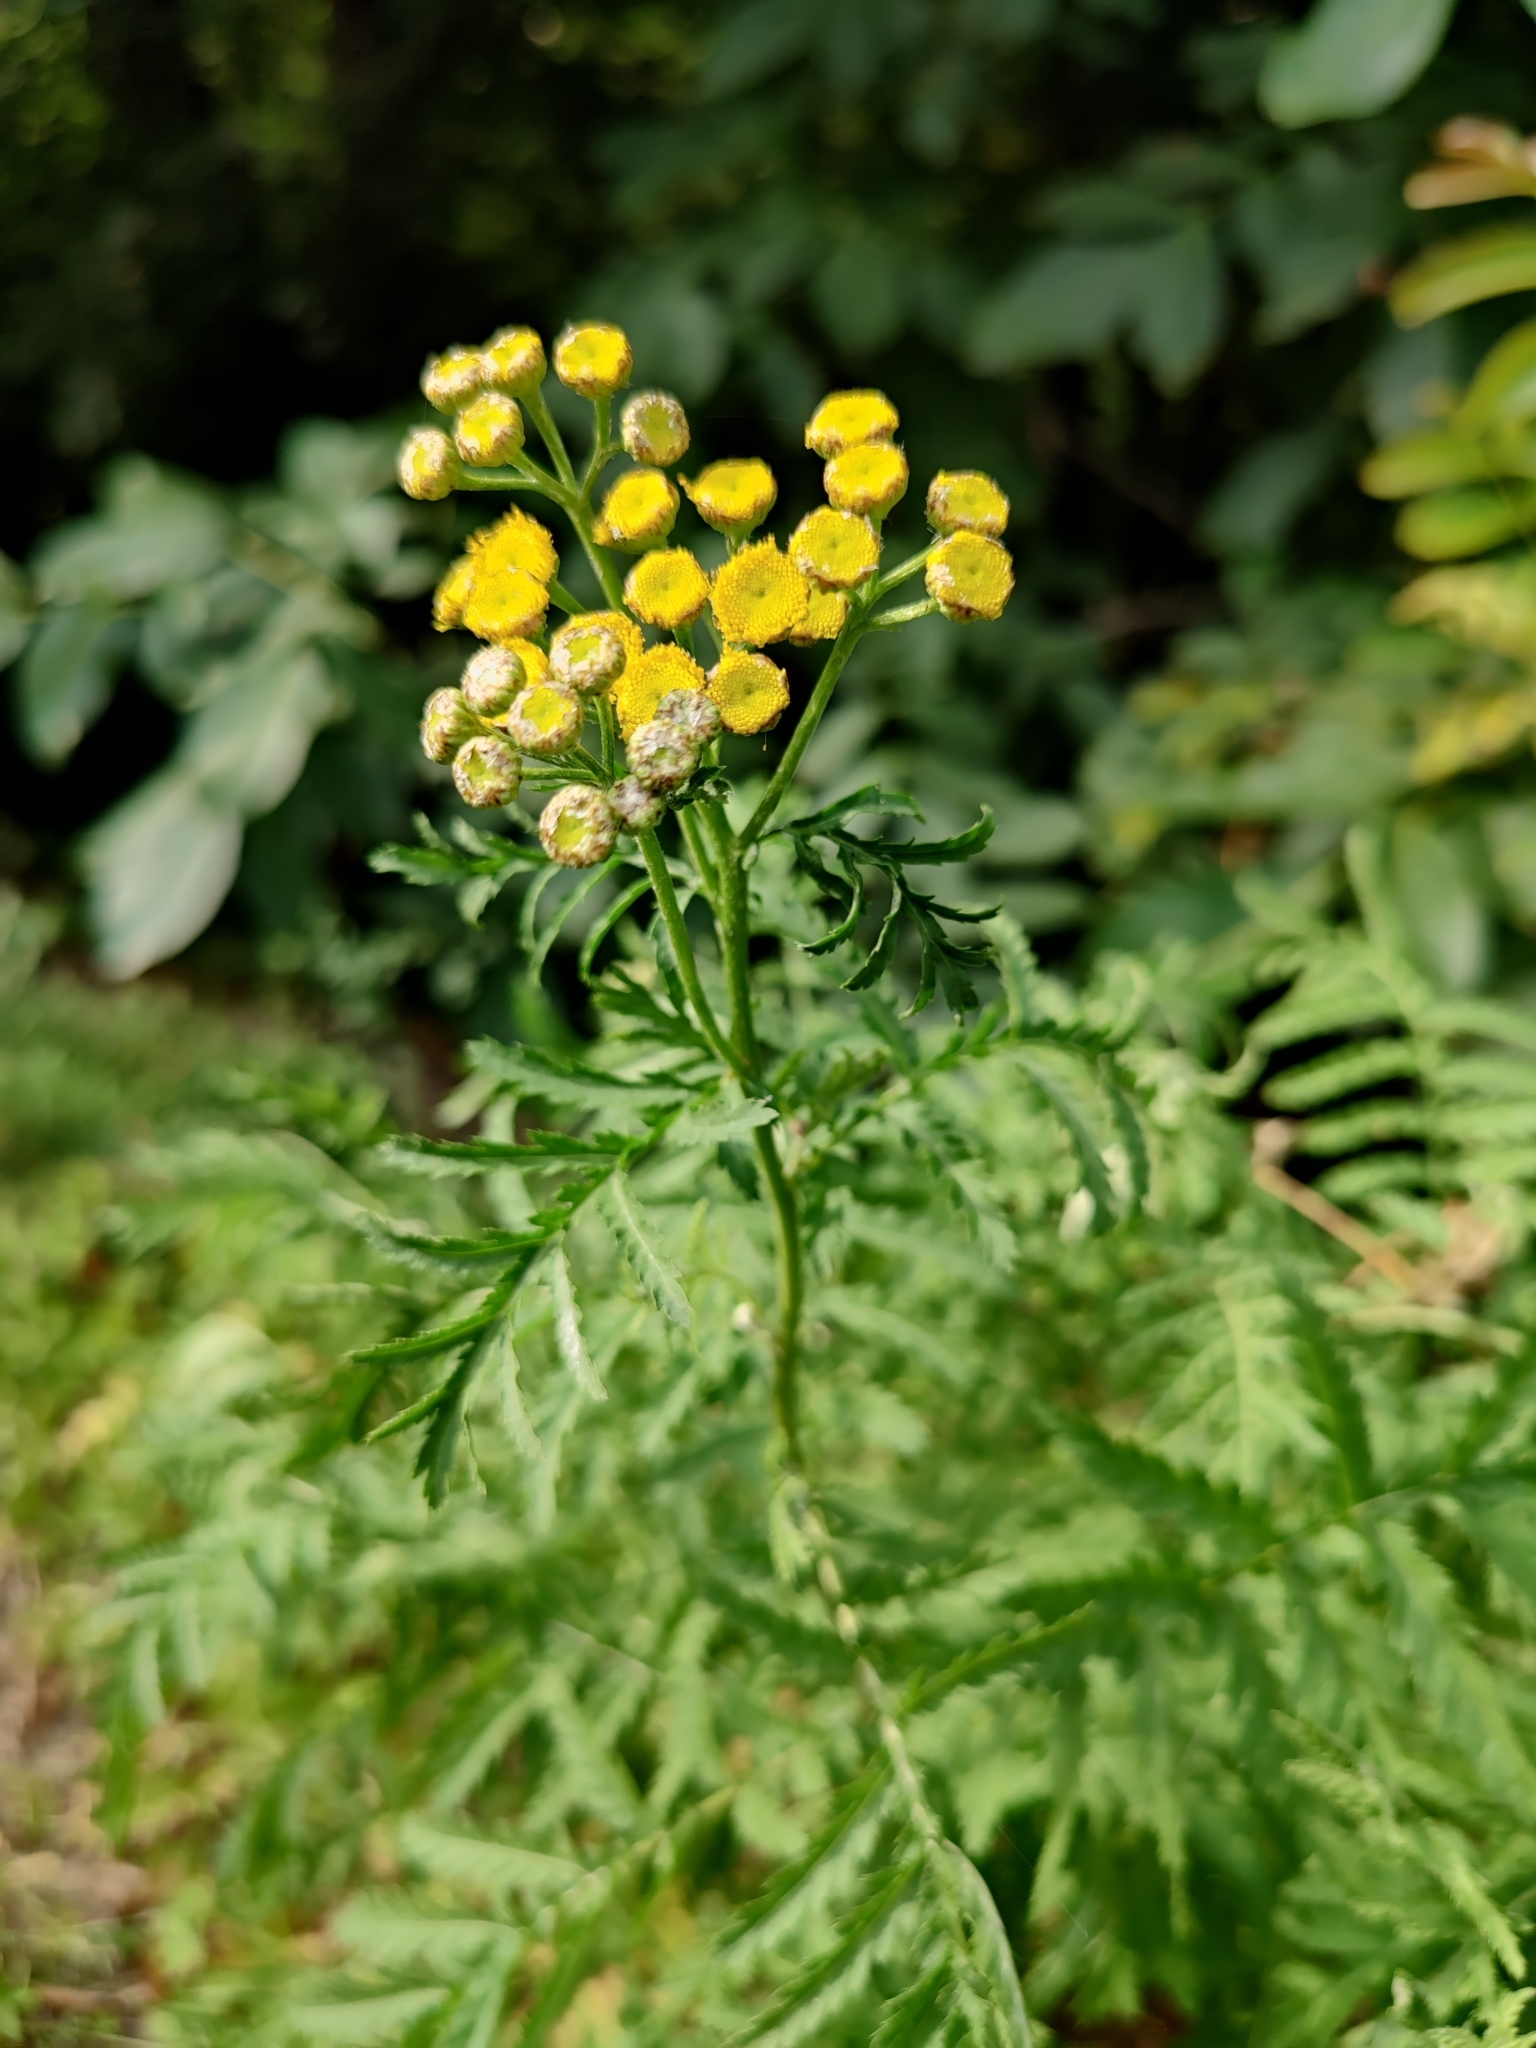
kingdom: Plantae
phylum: Tracheophyta
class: Magnoliopsida
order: Asterales
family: Asteraceae
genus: Tanacetum
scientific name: Tanacetum vulgare
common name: Common tansy
